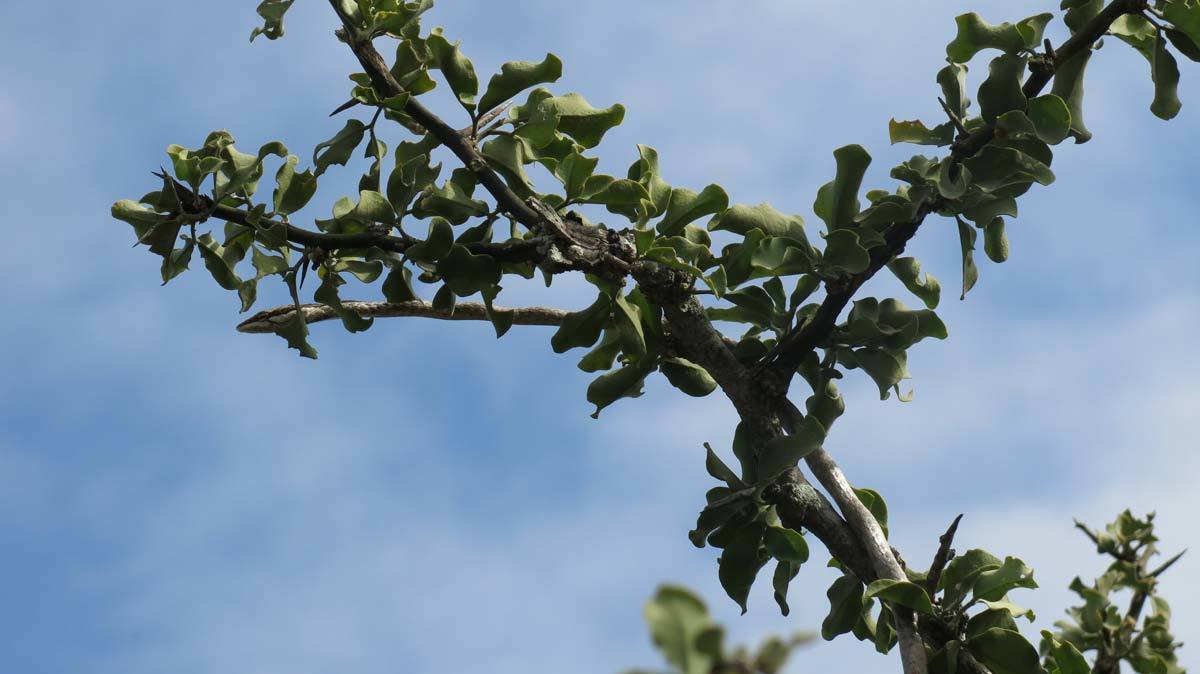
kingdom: Animalia
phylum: Chordata
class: Squamata
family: Colubridae
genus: Thelotornis
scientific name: Thelotornis capensis
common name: Savanna vine snake
